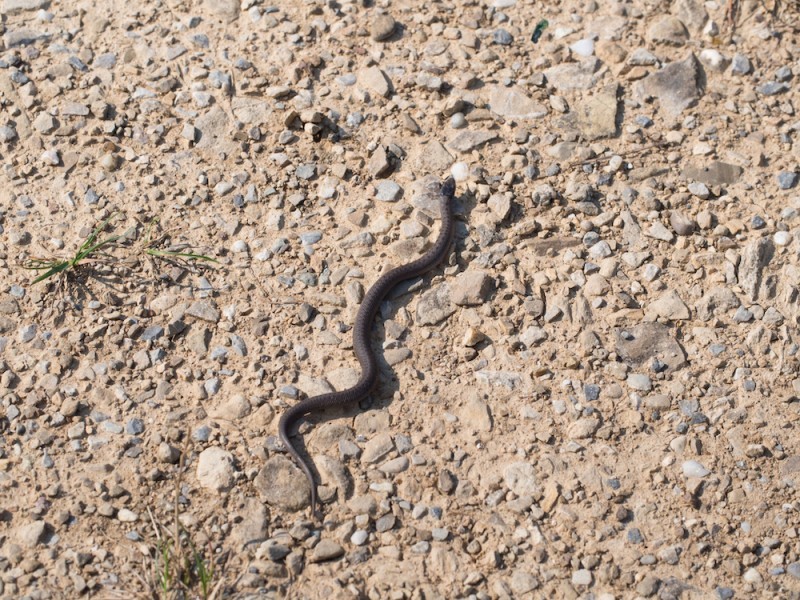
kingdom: Animalia
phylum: Chordata
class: Squamata
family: Colubridae
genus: Coronella
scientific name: Coronella austriaca
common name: Smooth snake
